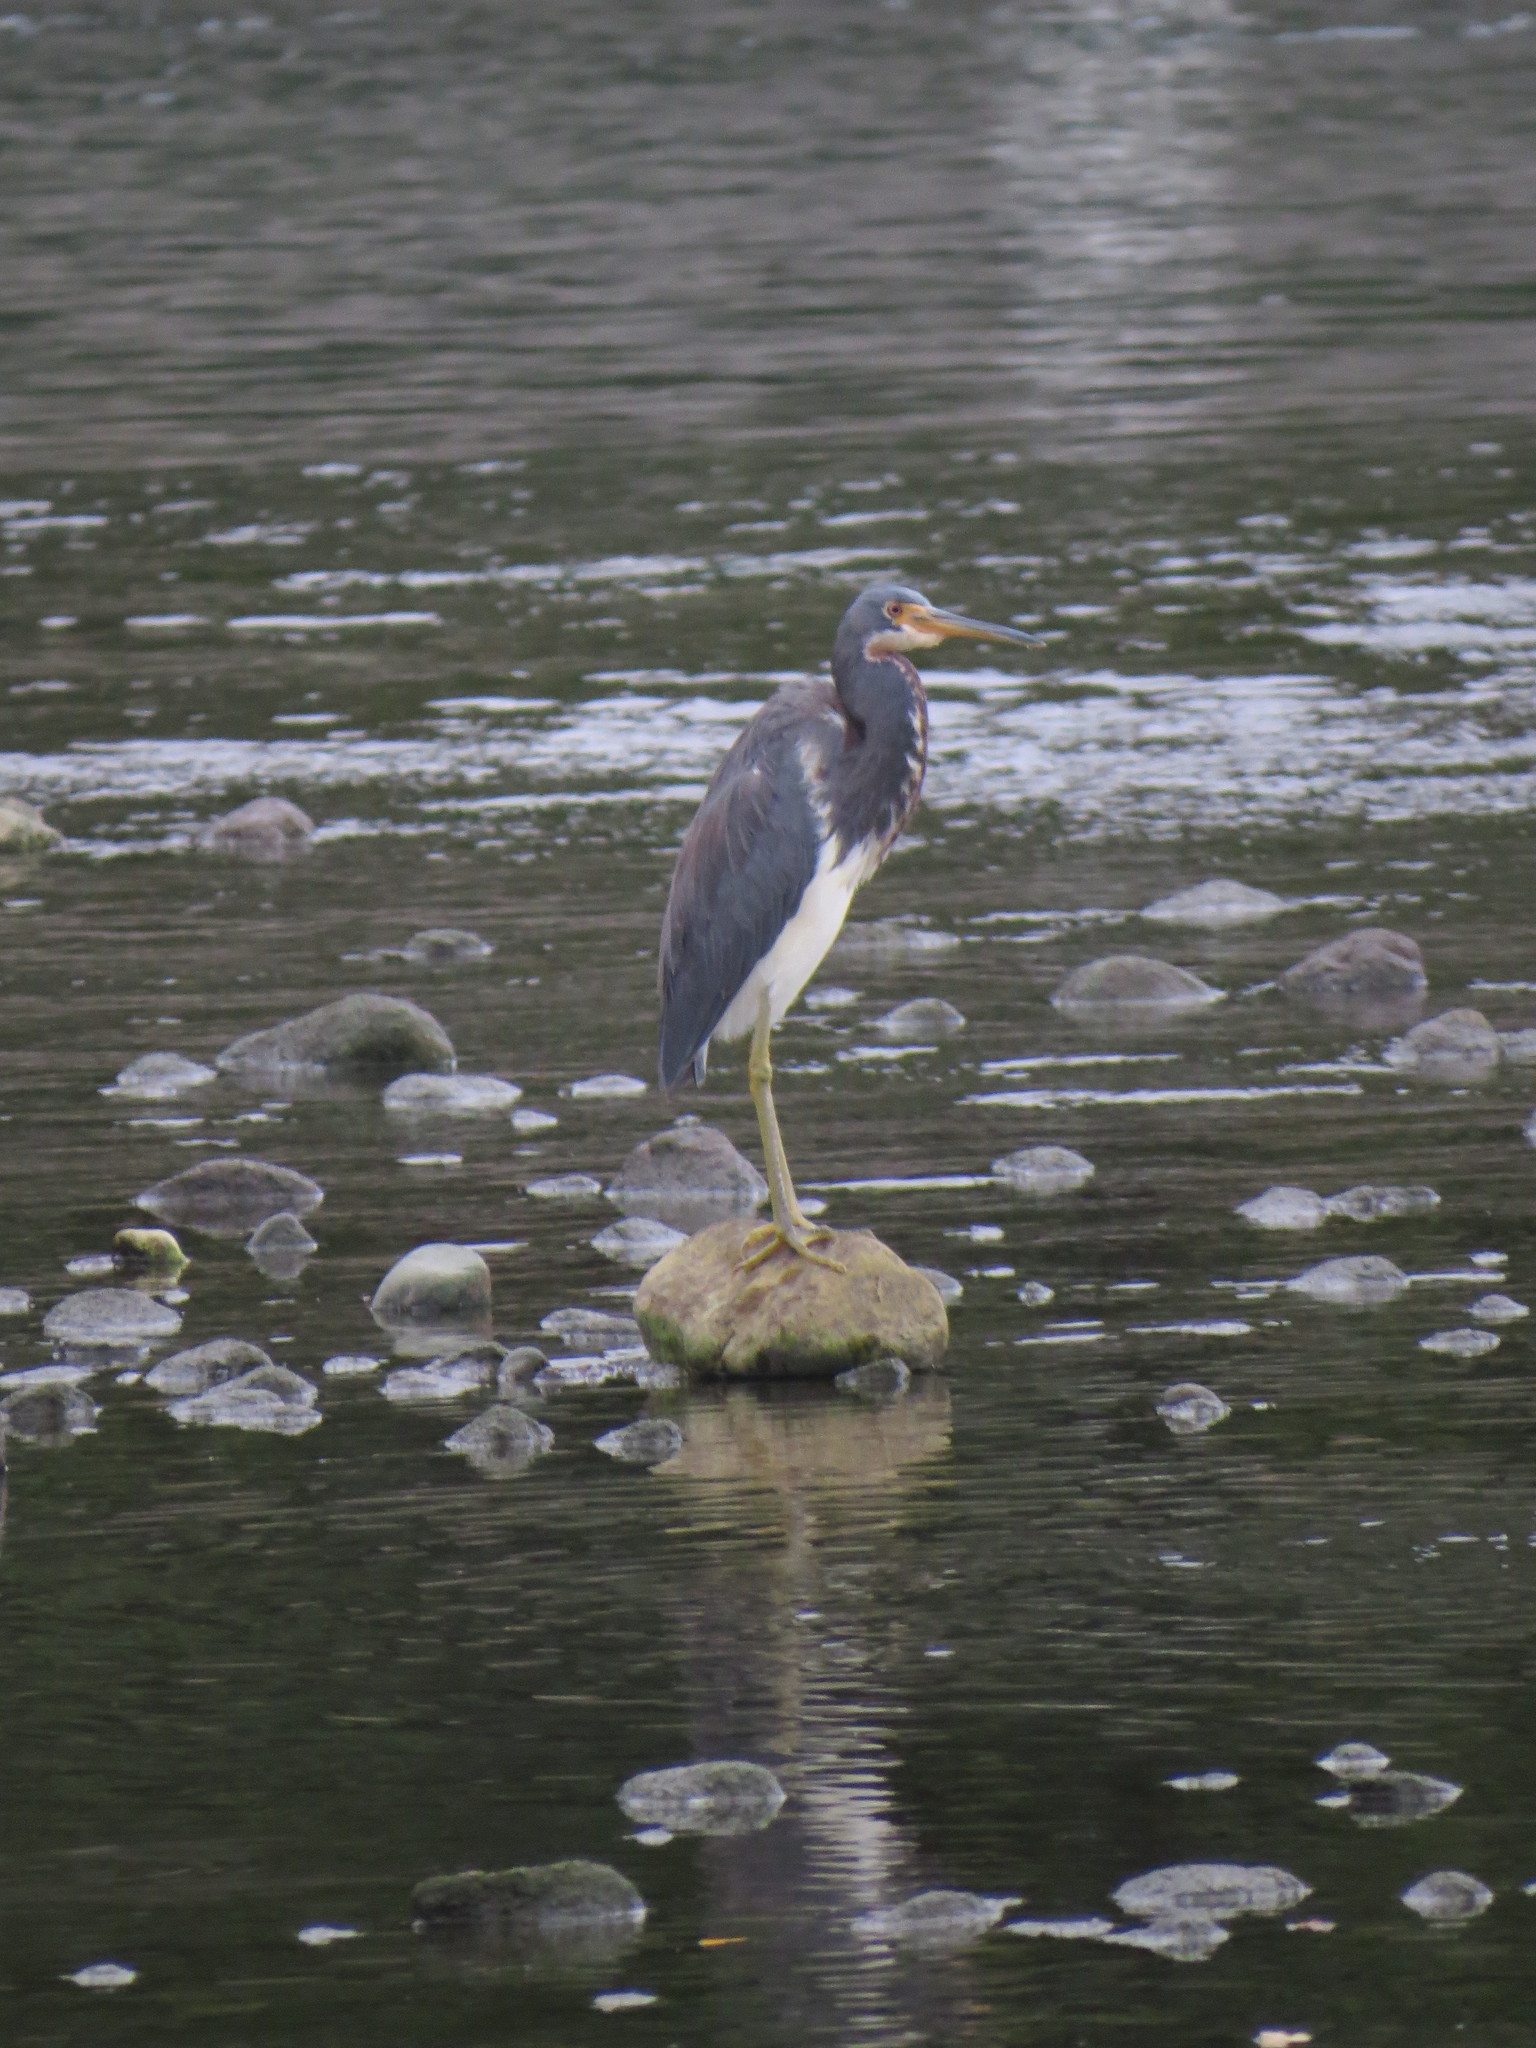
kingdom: Animalia
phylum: Chordata
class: Aves
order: Pelecaniformes
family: Ardeidae
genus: Egretta
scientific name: Egretta tricolor
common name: Tricolored heron
